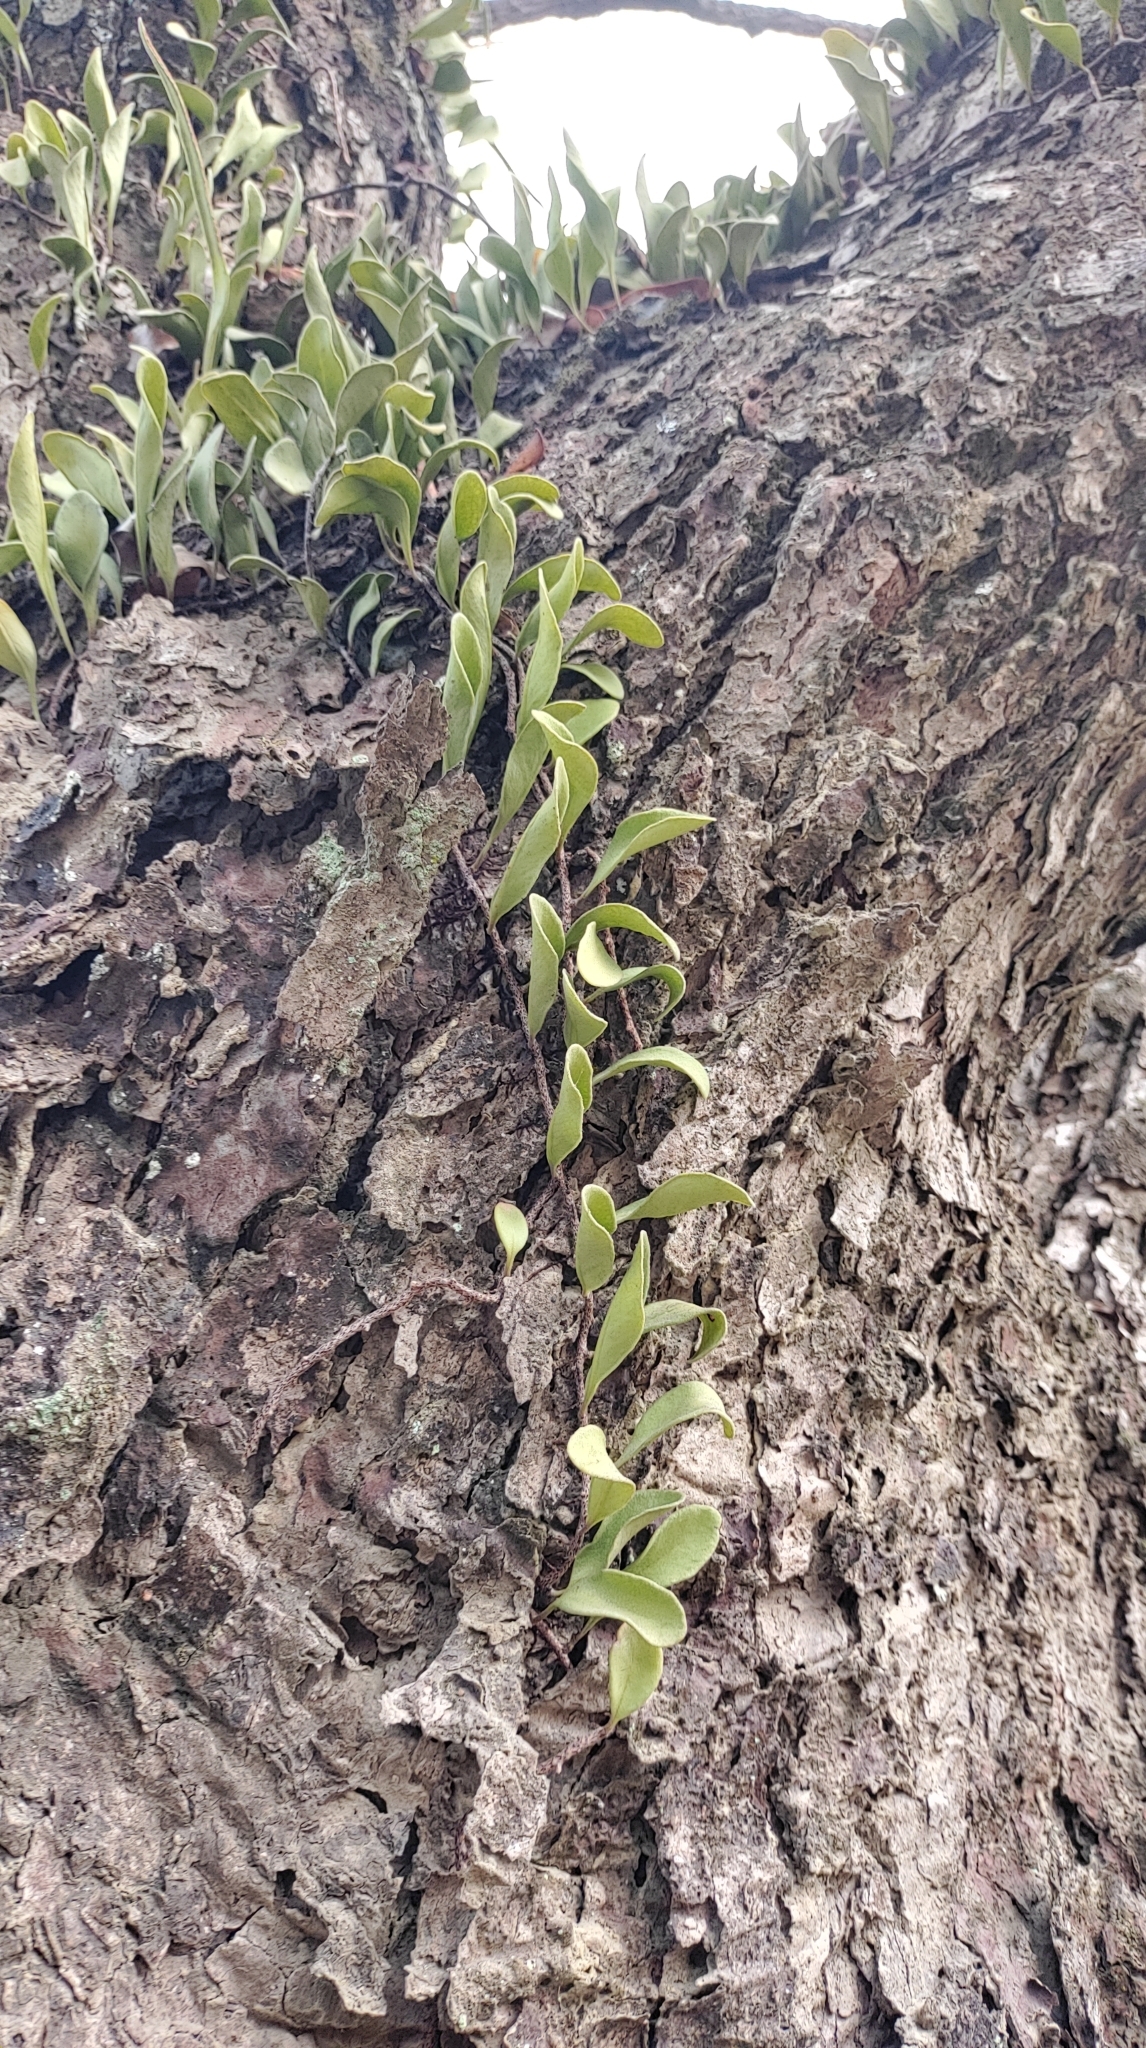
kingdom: Plantae
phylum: Tracheophyta
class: Polypodiopsida
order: Polypodiales
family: Polypodiaceae
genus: Pyrrosia
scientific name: Pyrrosia lanceolata
